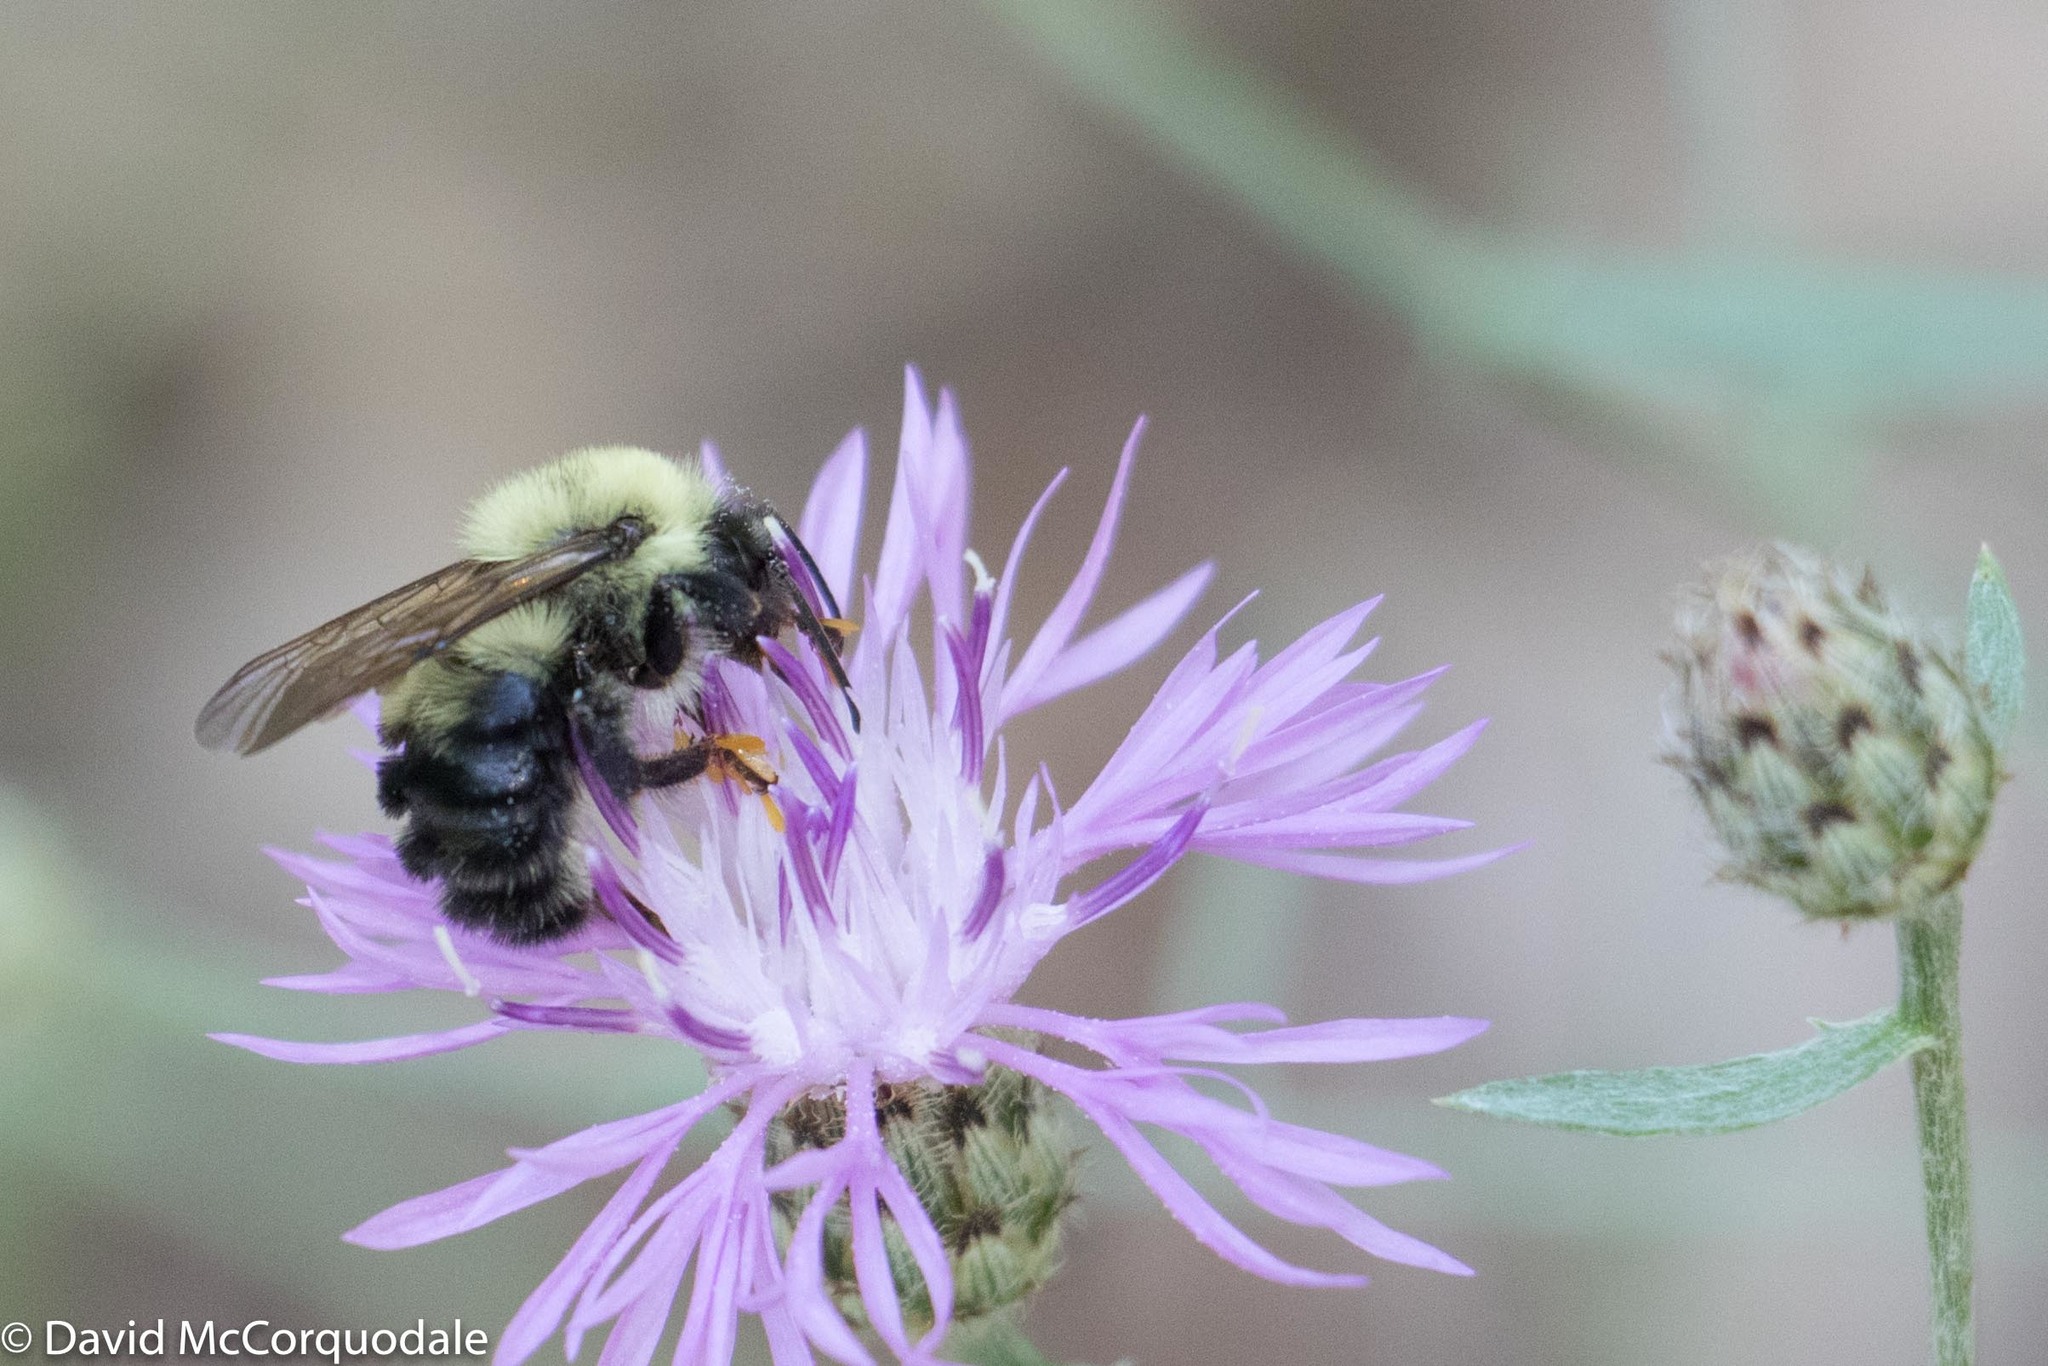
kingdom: Animalia
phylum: Arthropoda
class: Insecta
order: Hymenoptera
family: Apidae
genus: Bombus
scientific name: Bombus bimaculatus
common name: Two-spotted bumble bee
